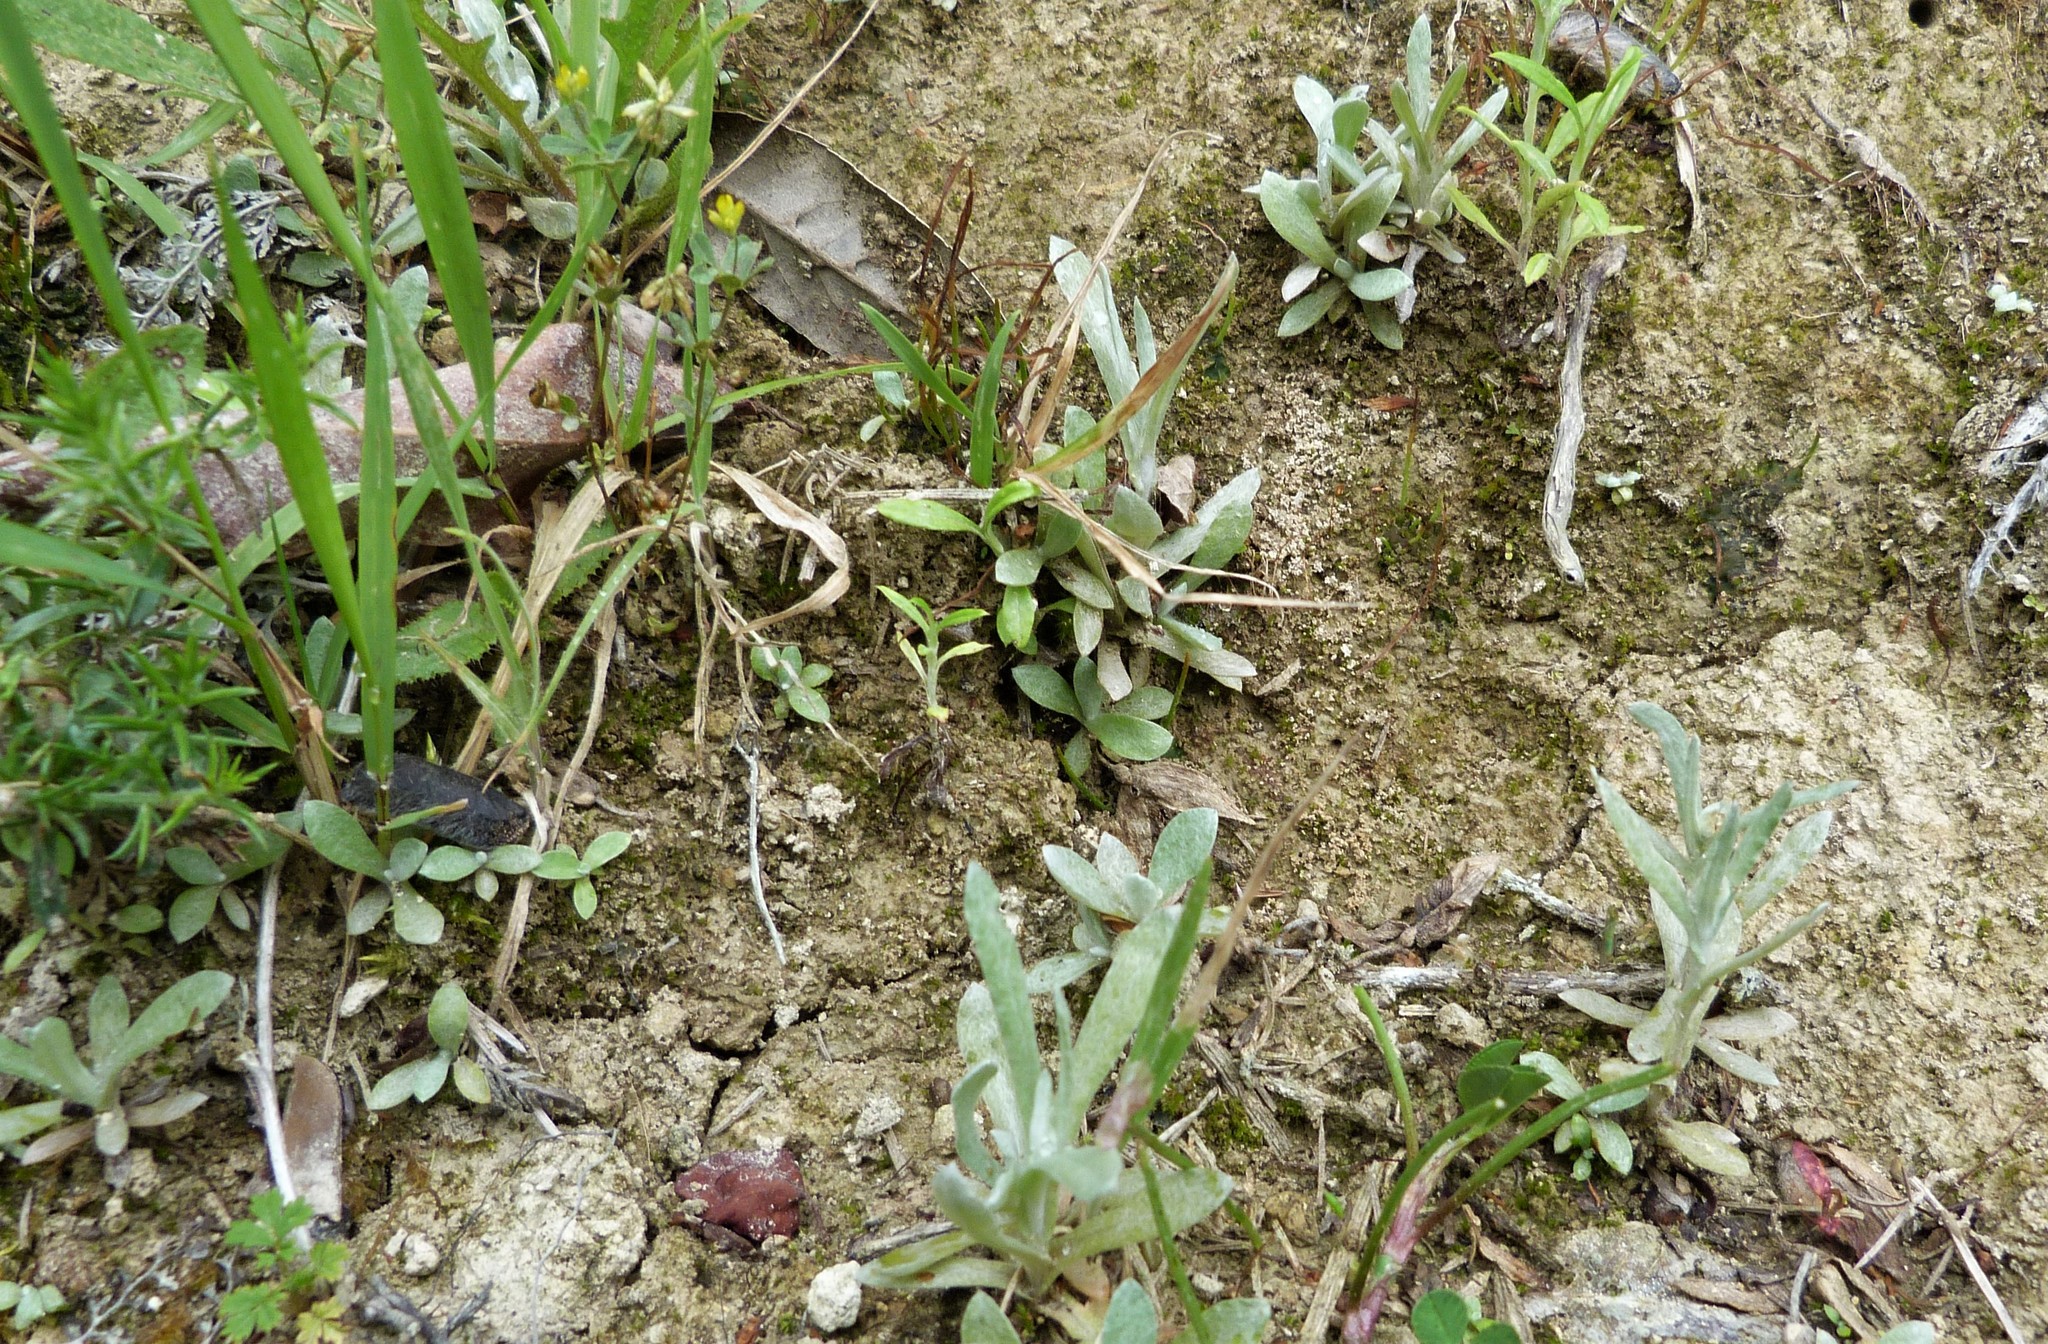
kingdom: Plantae
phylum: Tracheophyta
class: Magnoliopsida
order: Asterales
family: Asteraceae
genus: Helichrysum
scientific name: Helichrysum luteoalbum
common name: Daisy
